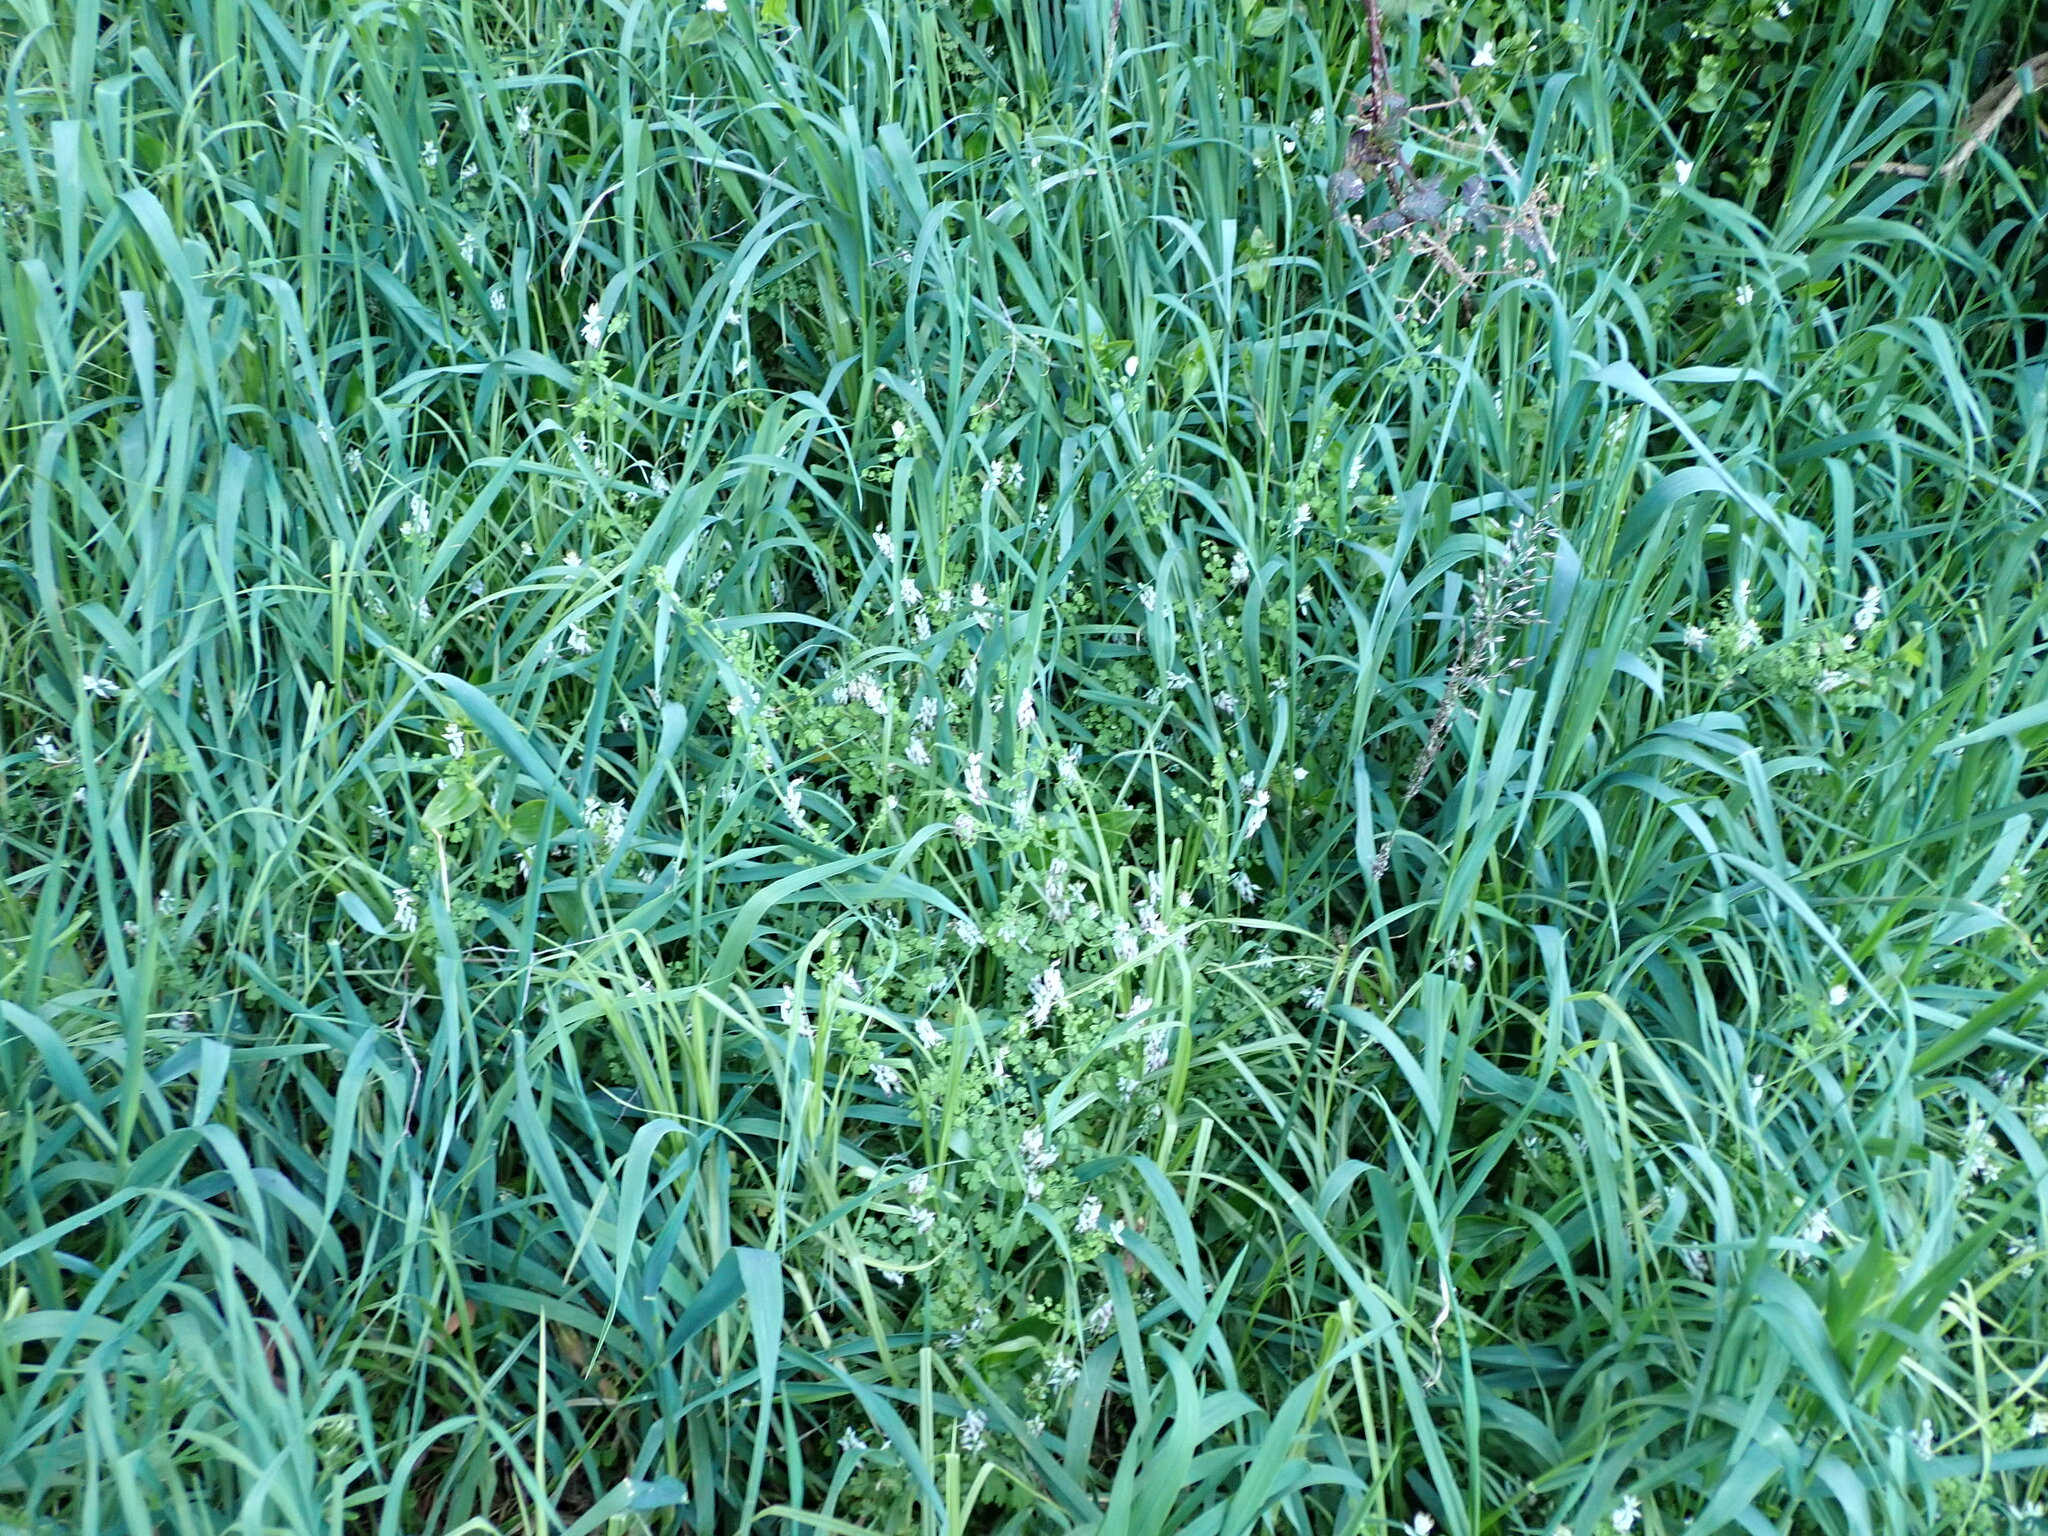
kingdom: Plantae
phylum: Tracheophyta
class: Magnoliopsida
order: Ranunculales
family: Papaveraceae
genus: Fumaria
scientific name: Fumaria capreolata
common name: White ramping-fumitory
